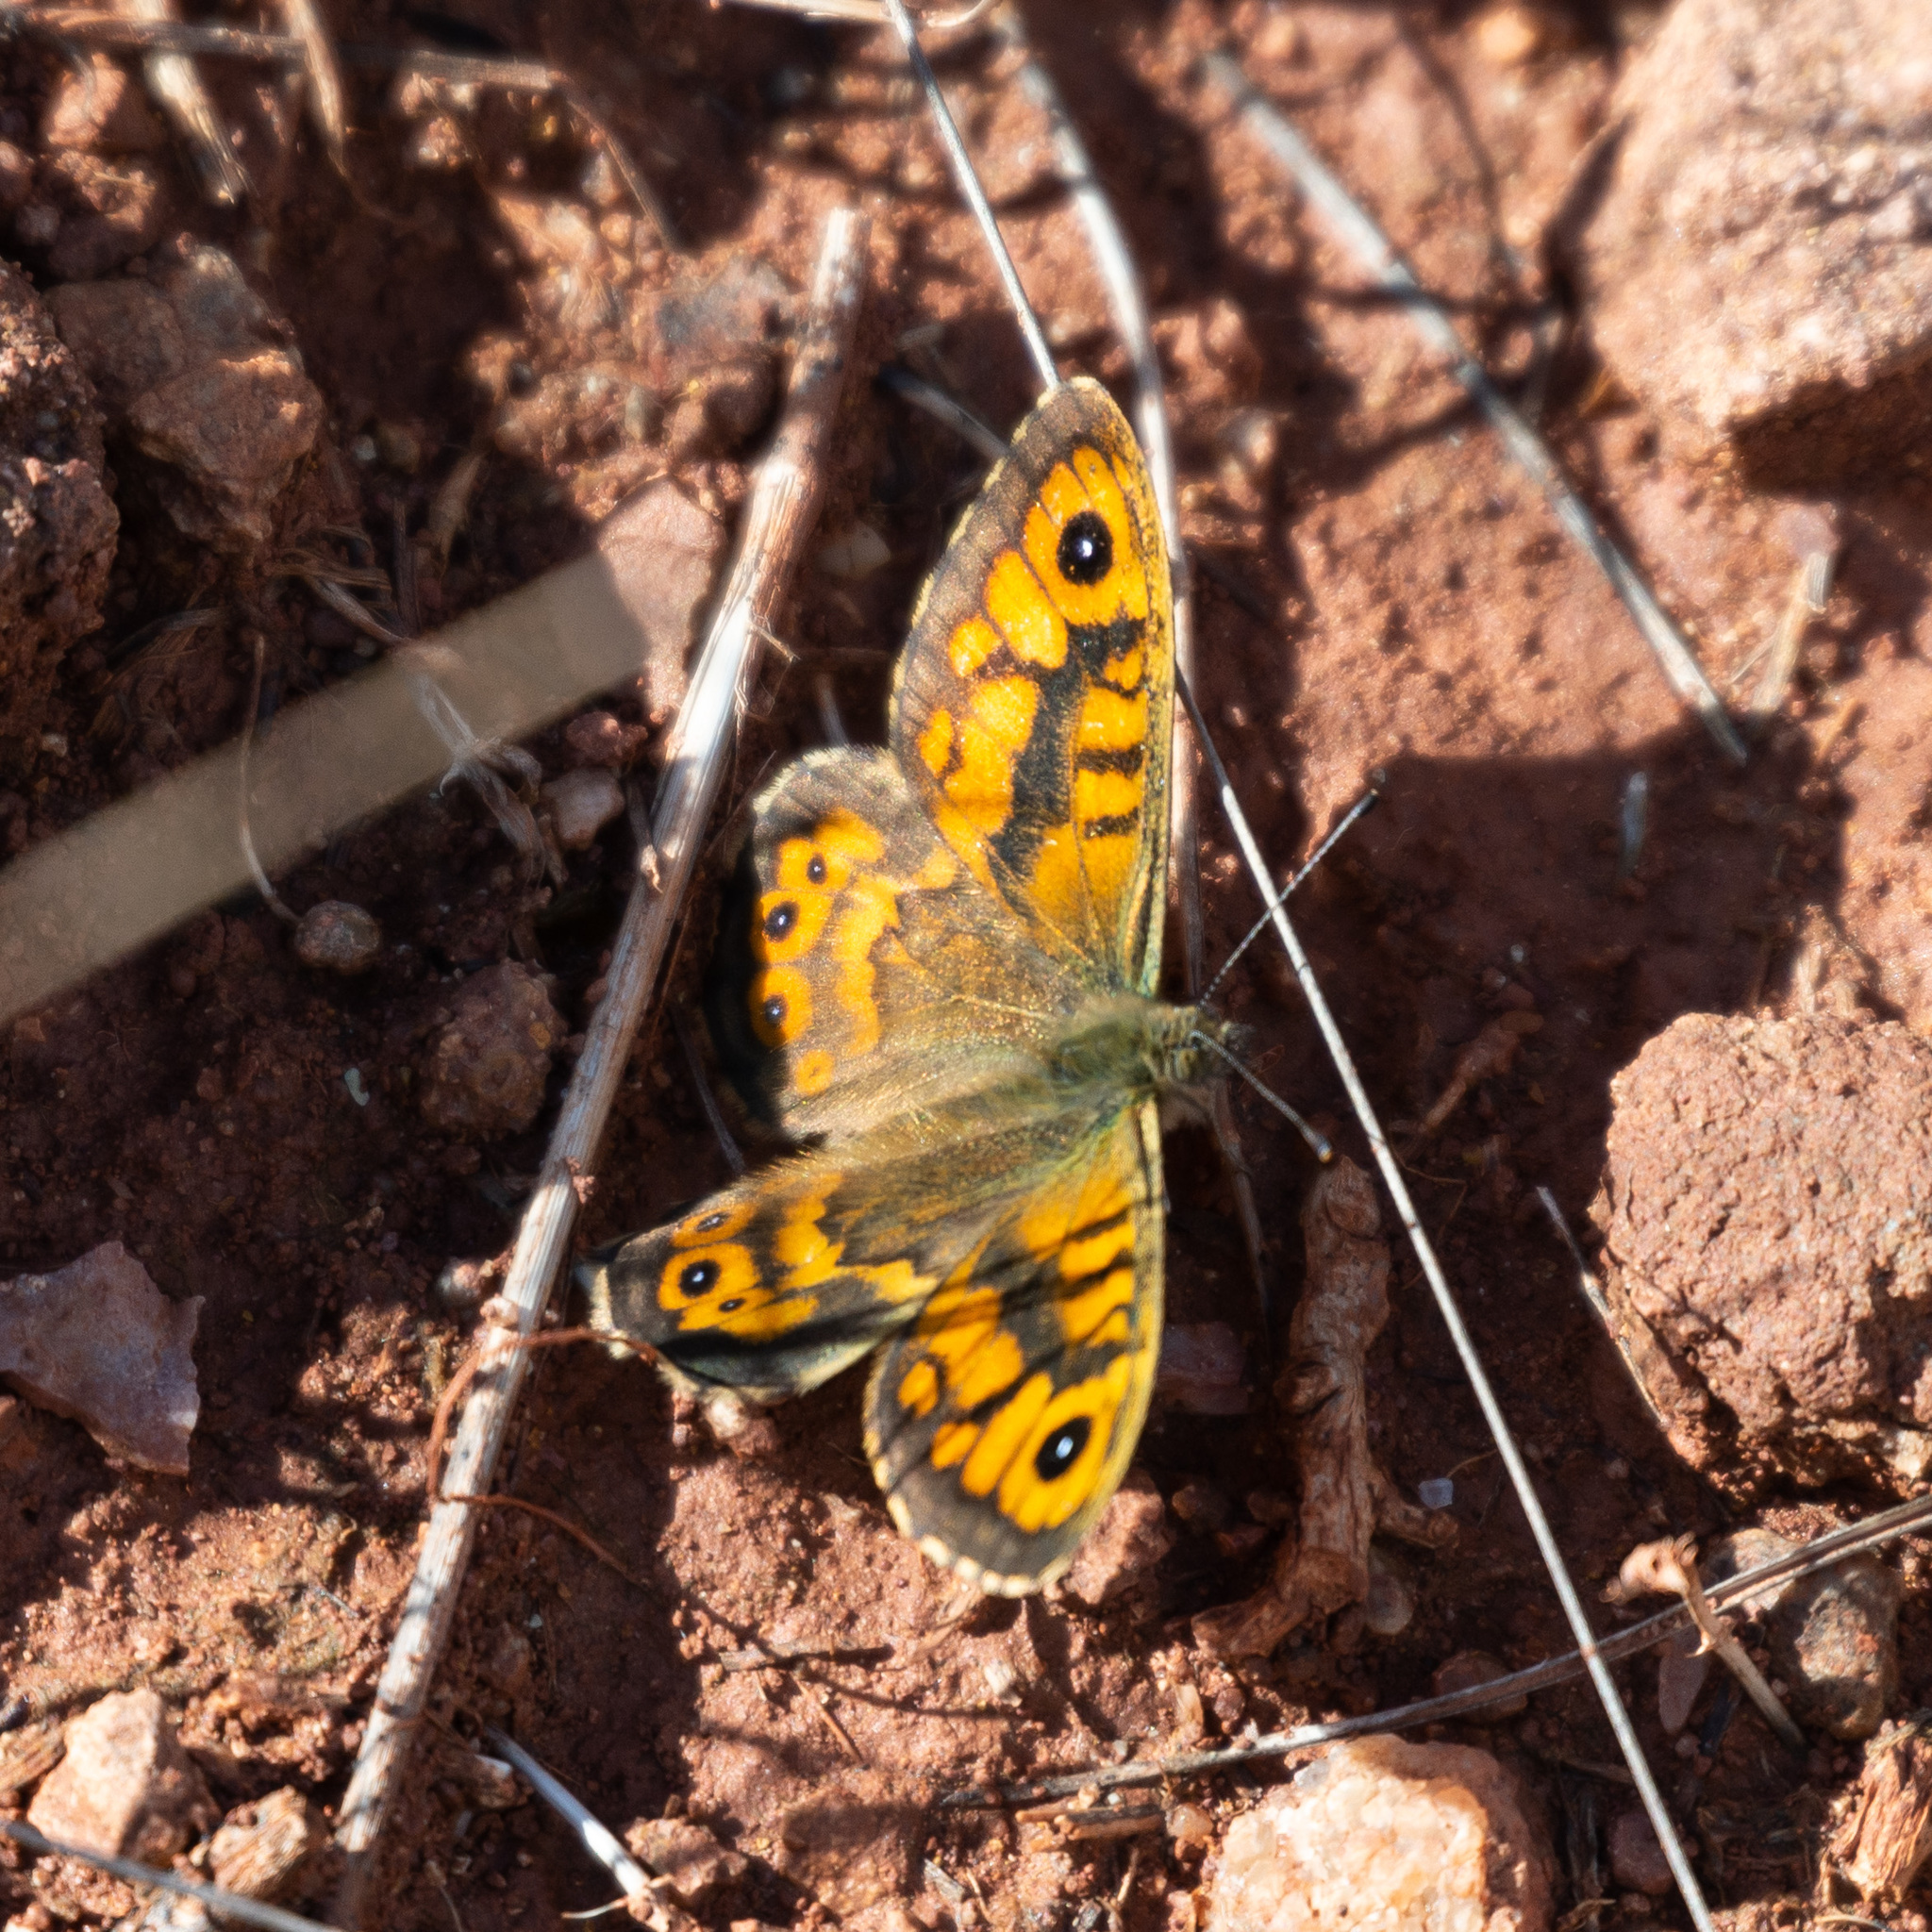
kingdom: Animalia
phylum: Arthropoda
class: Insecta
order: Lepidoptera
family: Nymphalidae
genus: Pararge
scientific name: Pararge Lasiommata megera
